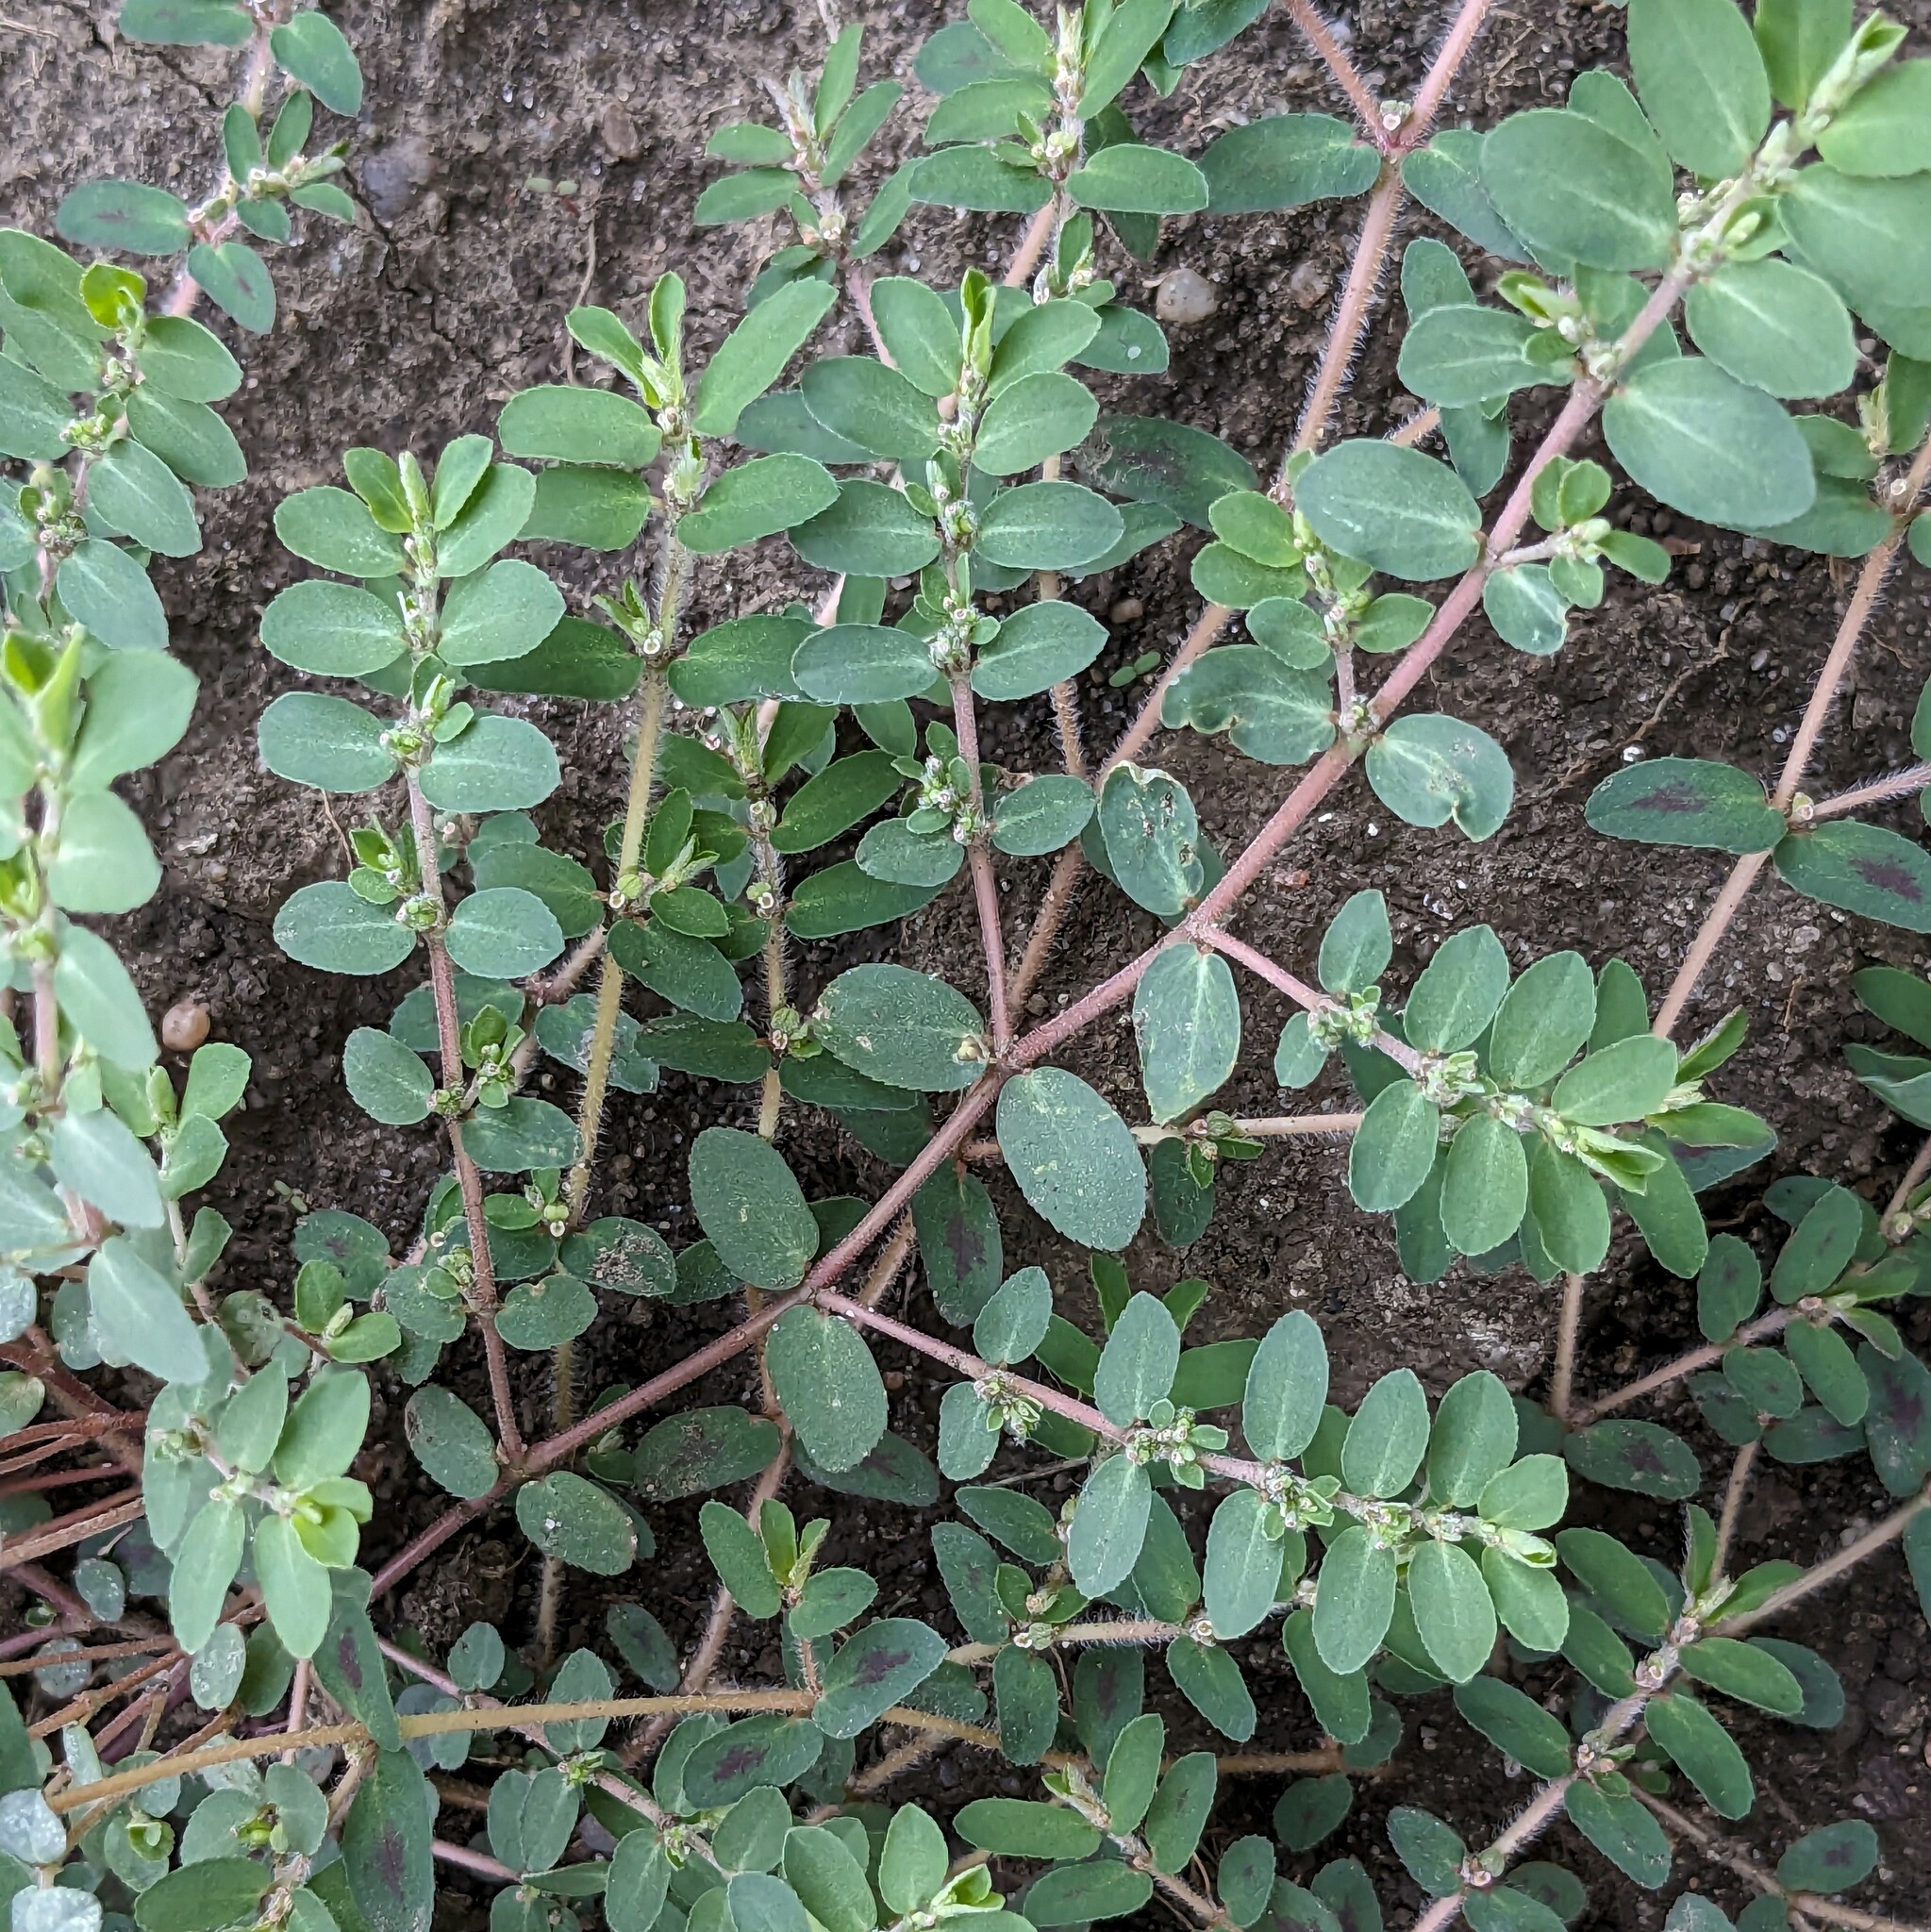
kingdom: Plantae
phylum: Tracheophyta
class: Magnoliopsida
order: Malpighiales
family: Euphorbiaceae
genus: Euphorbia
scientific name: Euphorbia prostrata
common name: Prostrate sandmat
